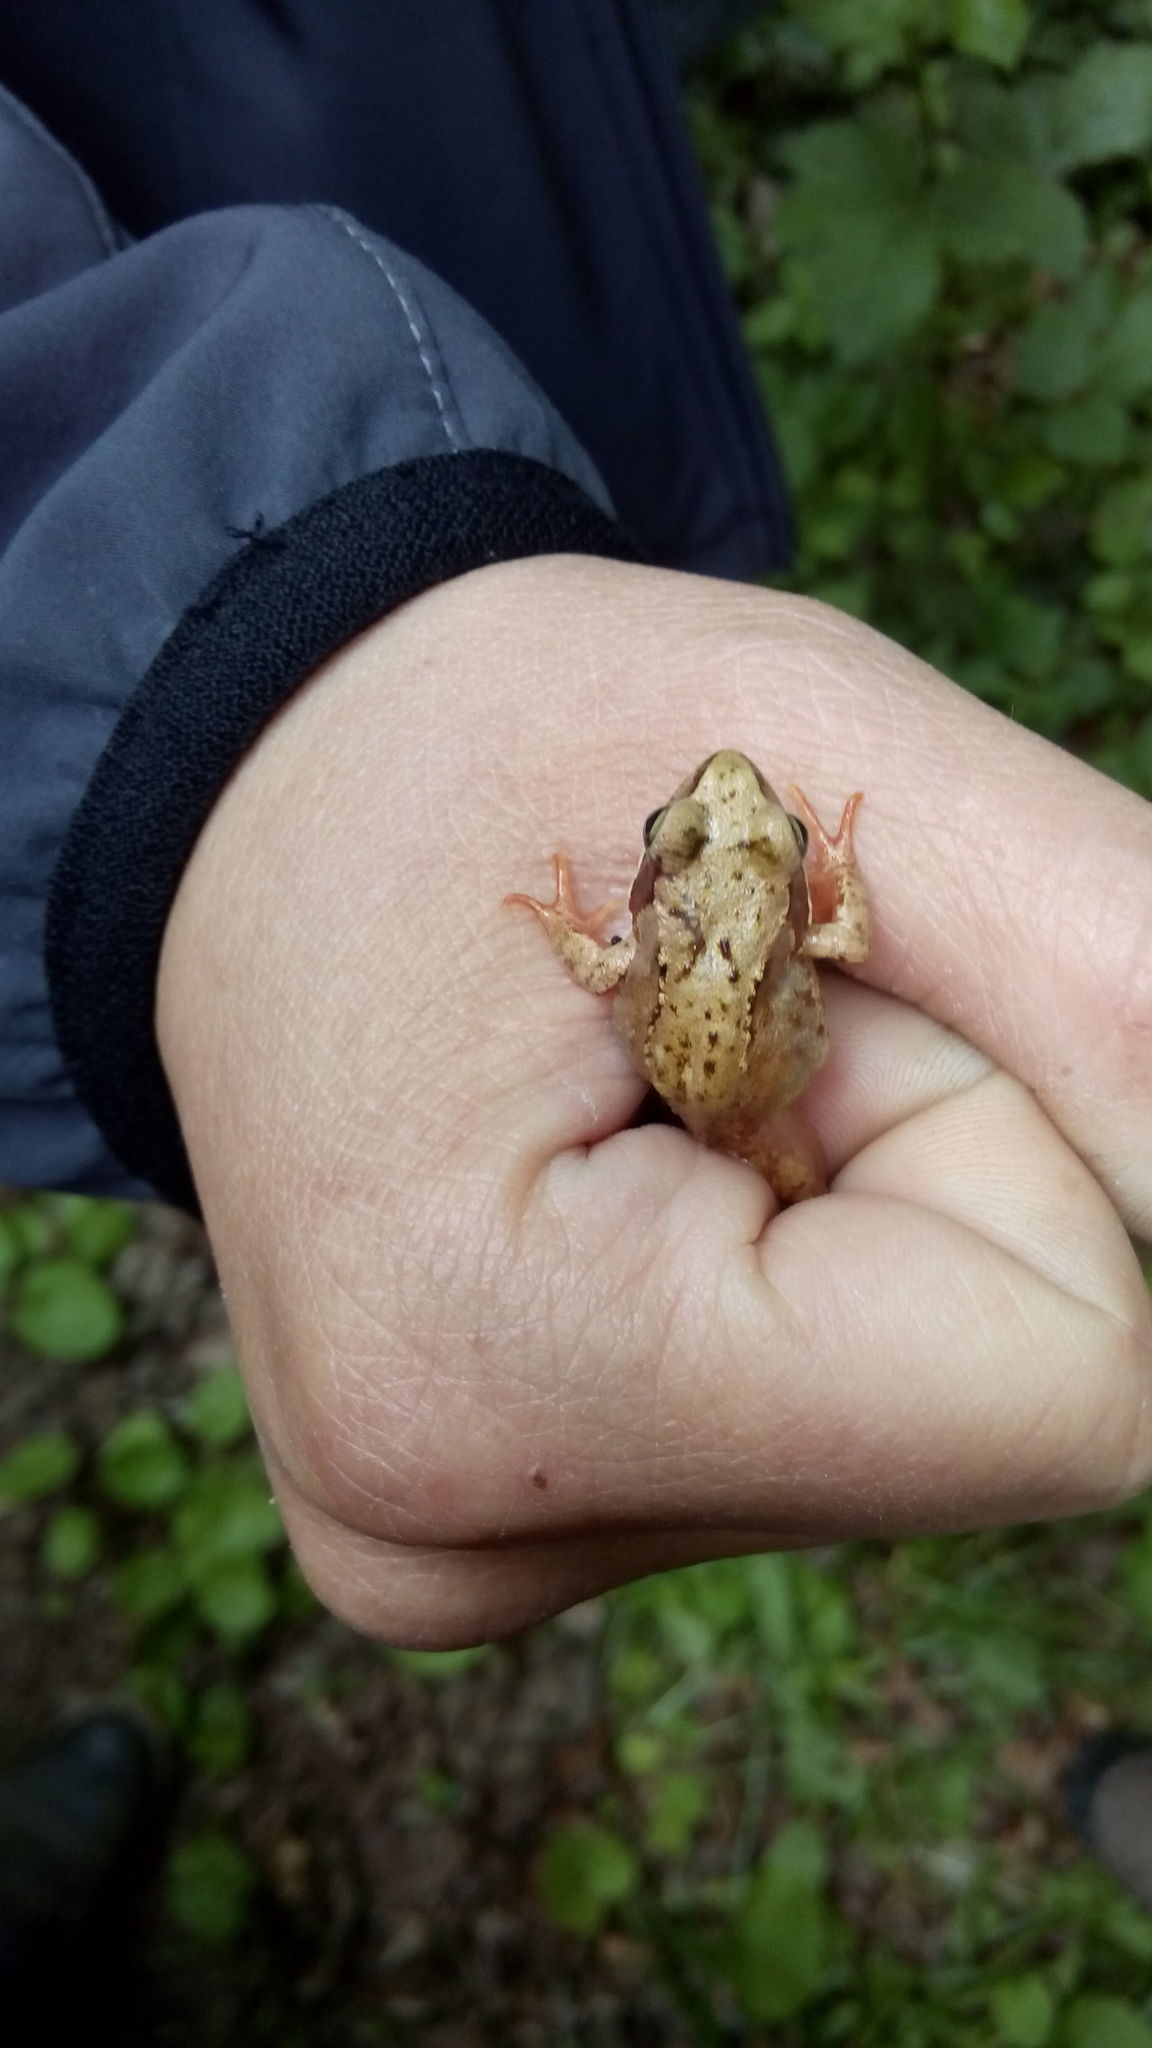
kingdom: Animalia
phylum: Chordata
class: Amphibia
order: Anura
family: Ranidae
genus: Rana
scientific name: Rana temporaria
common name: Common frog
